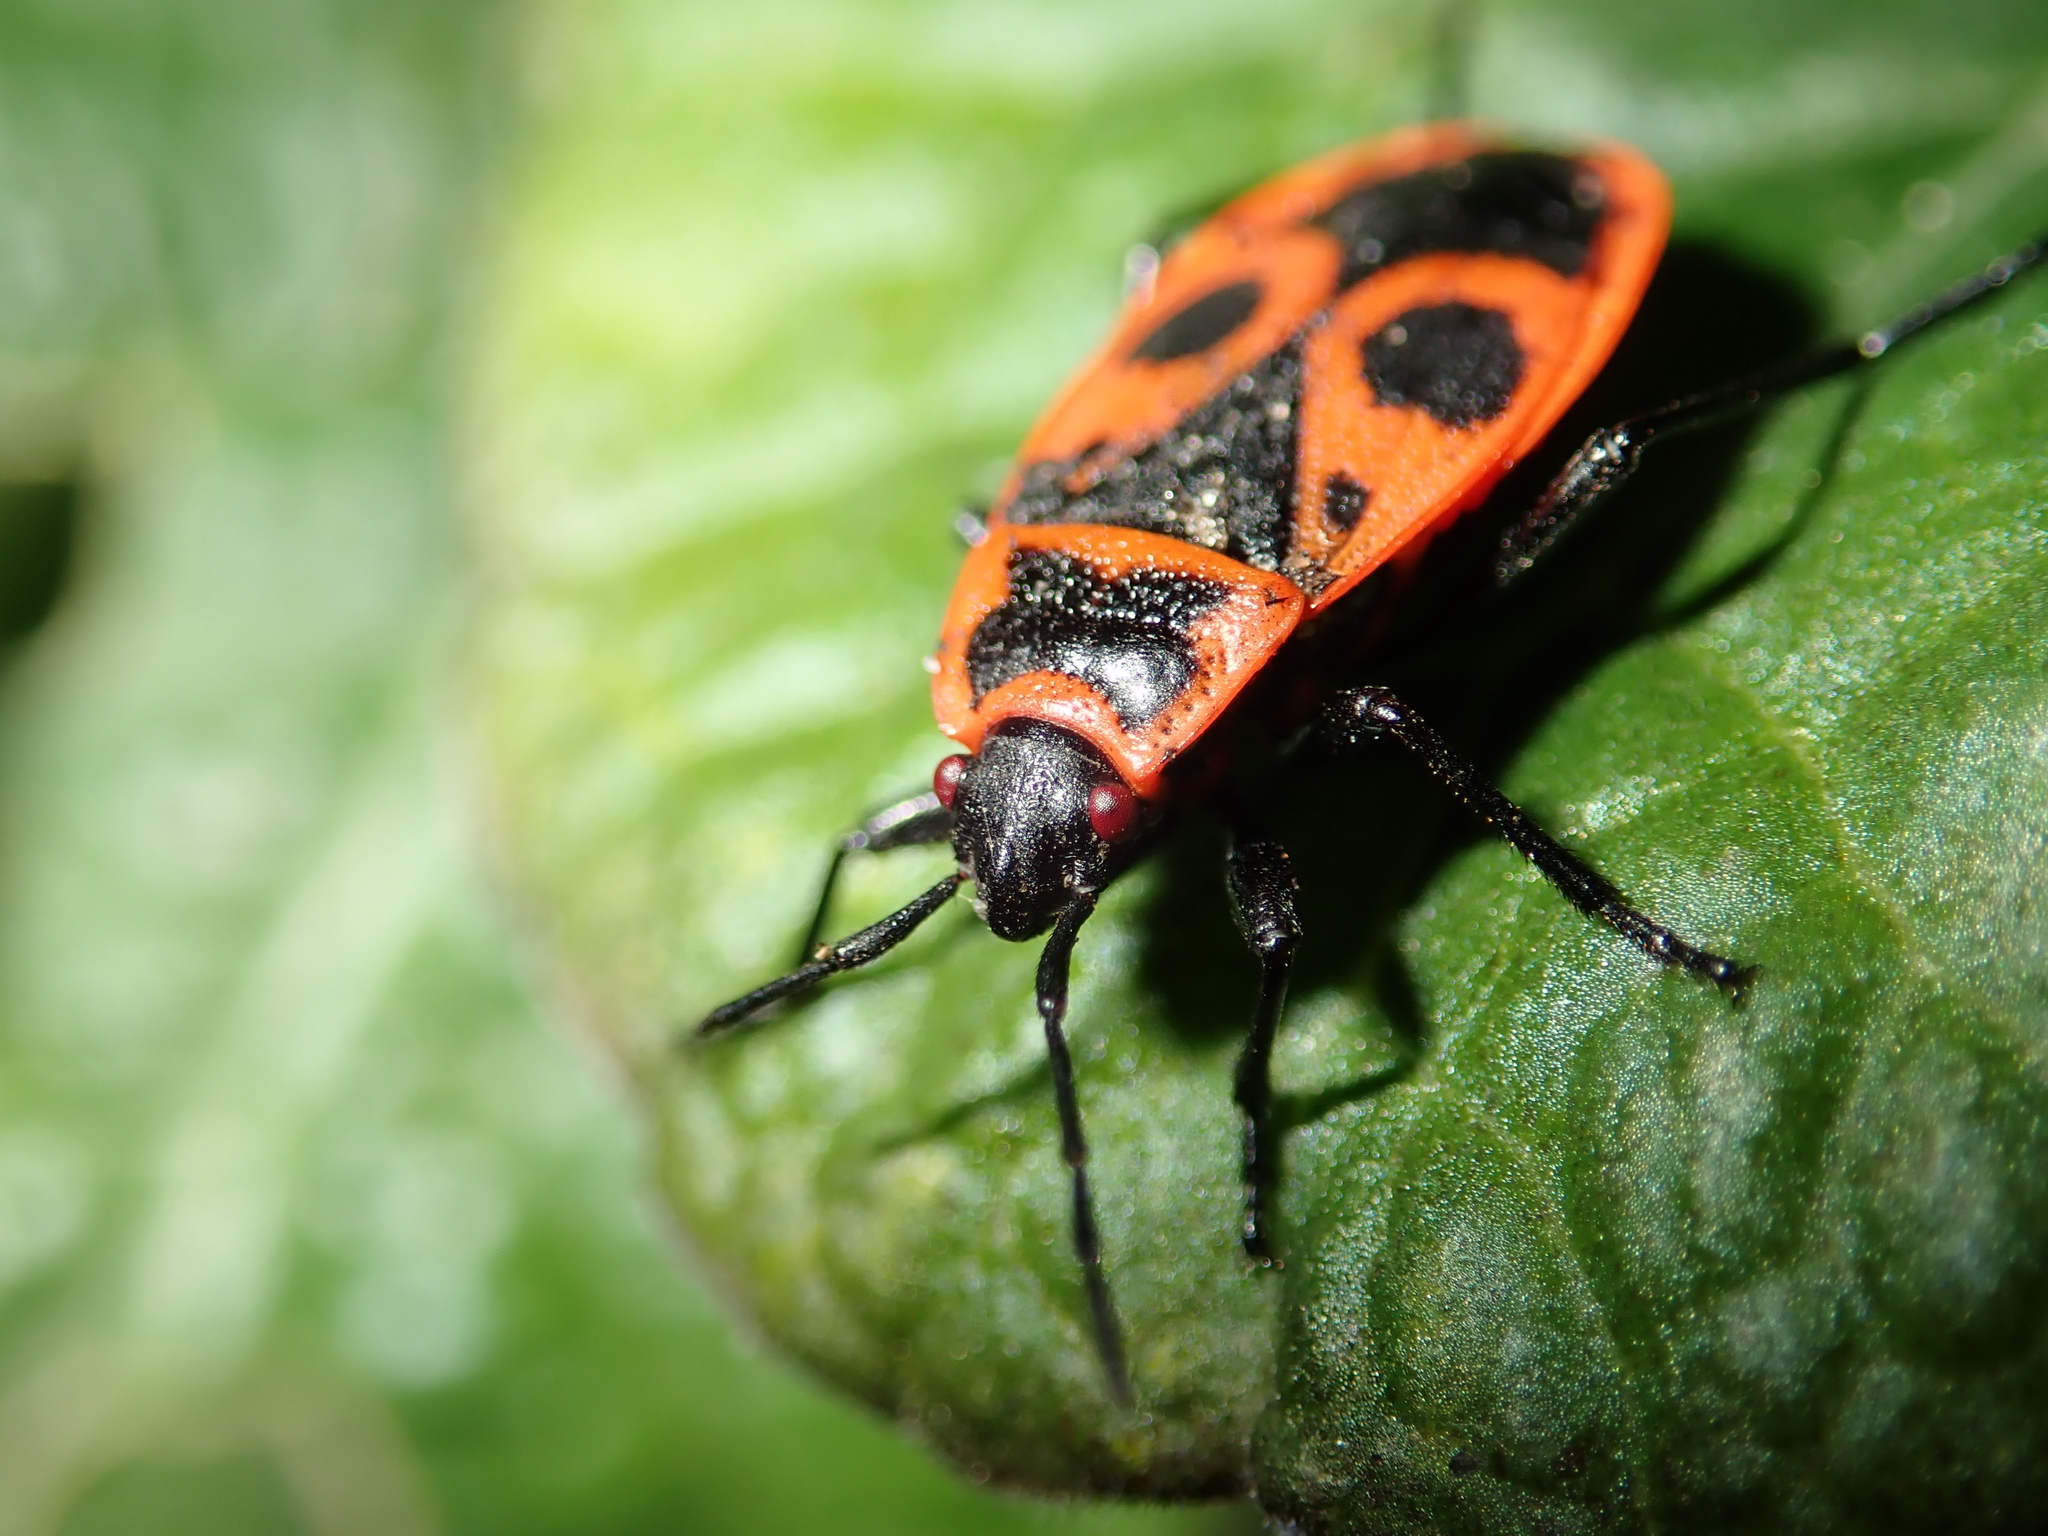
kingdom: Animalia
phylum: Arthropoda
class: Insecta
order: Hemiptera
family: Pyrrhocoridae
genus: Pyrrhocoris
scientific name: Pyrrhocoris apterus
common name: Firebug
